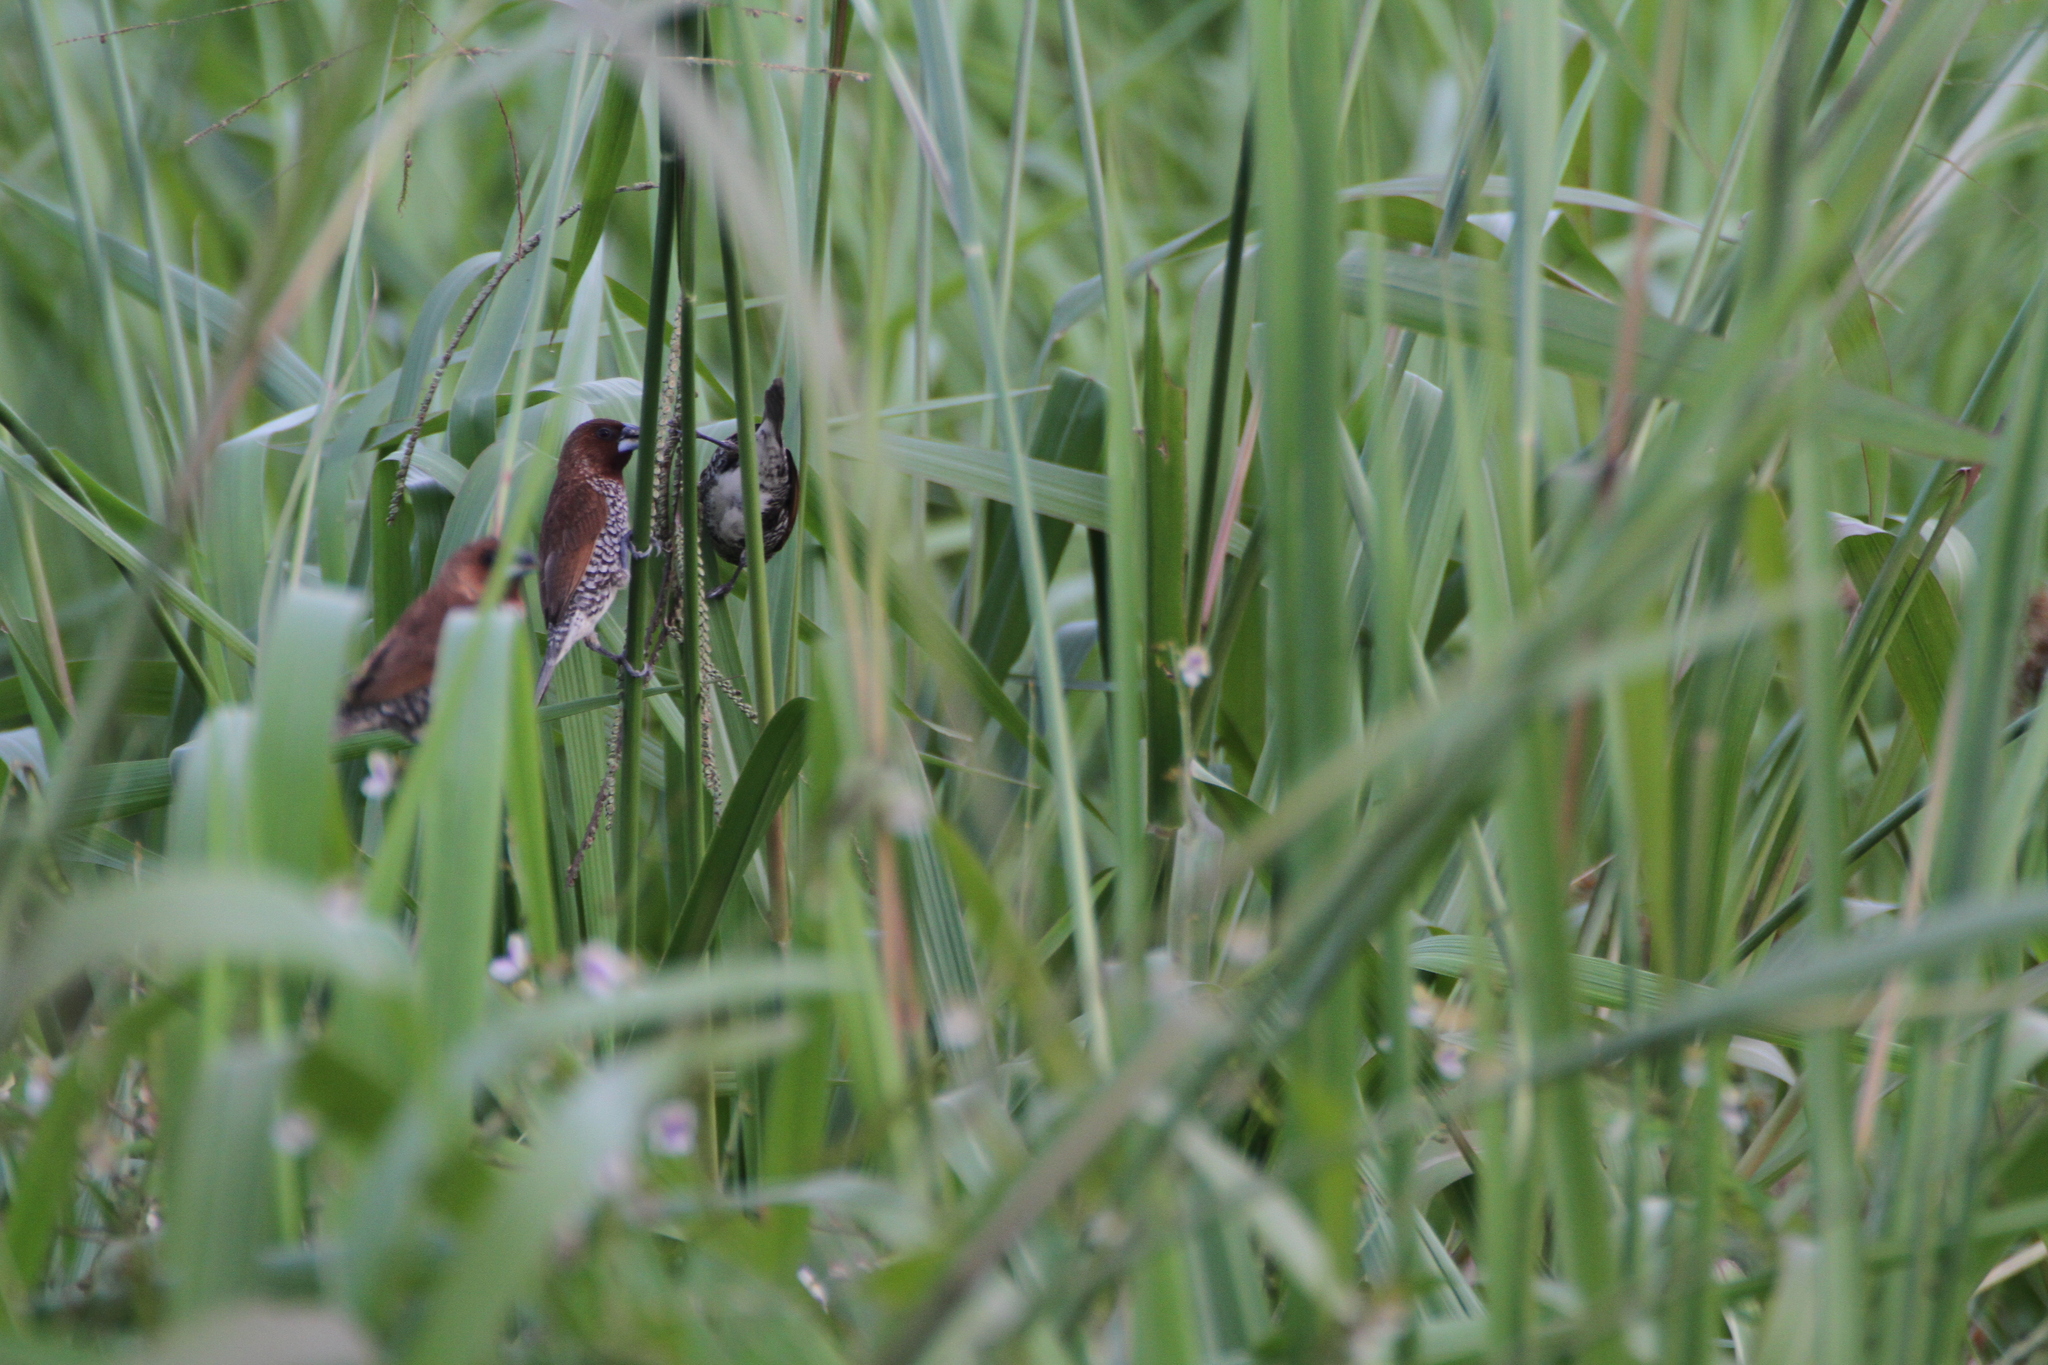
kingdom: Animalia
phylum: Chordata
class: Aves
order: Passeriformes
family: Estrildidae
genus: Lonchura
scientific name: Lonchura punctulata
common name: Scaly-breasted munia
